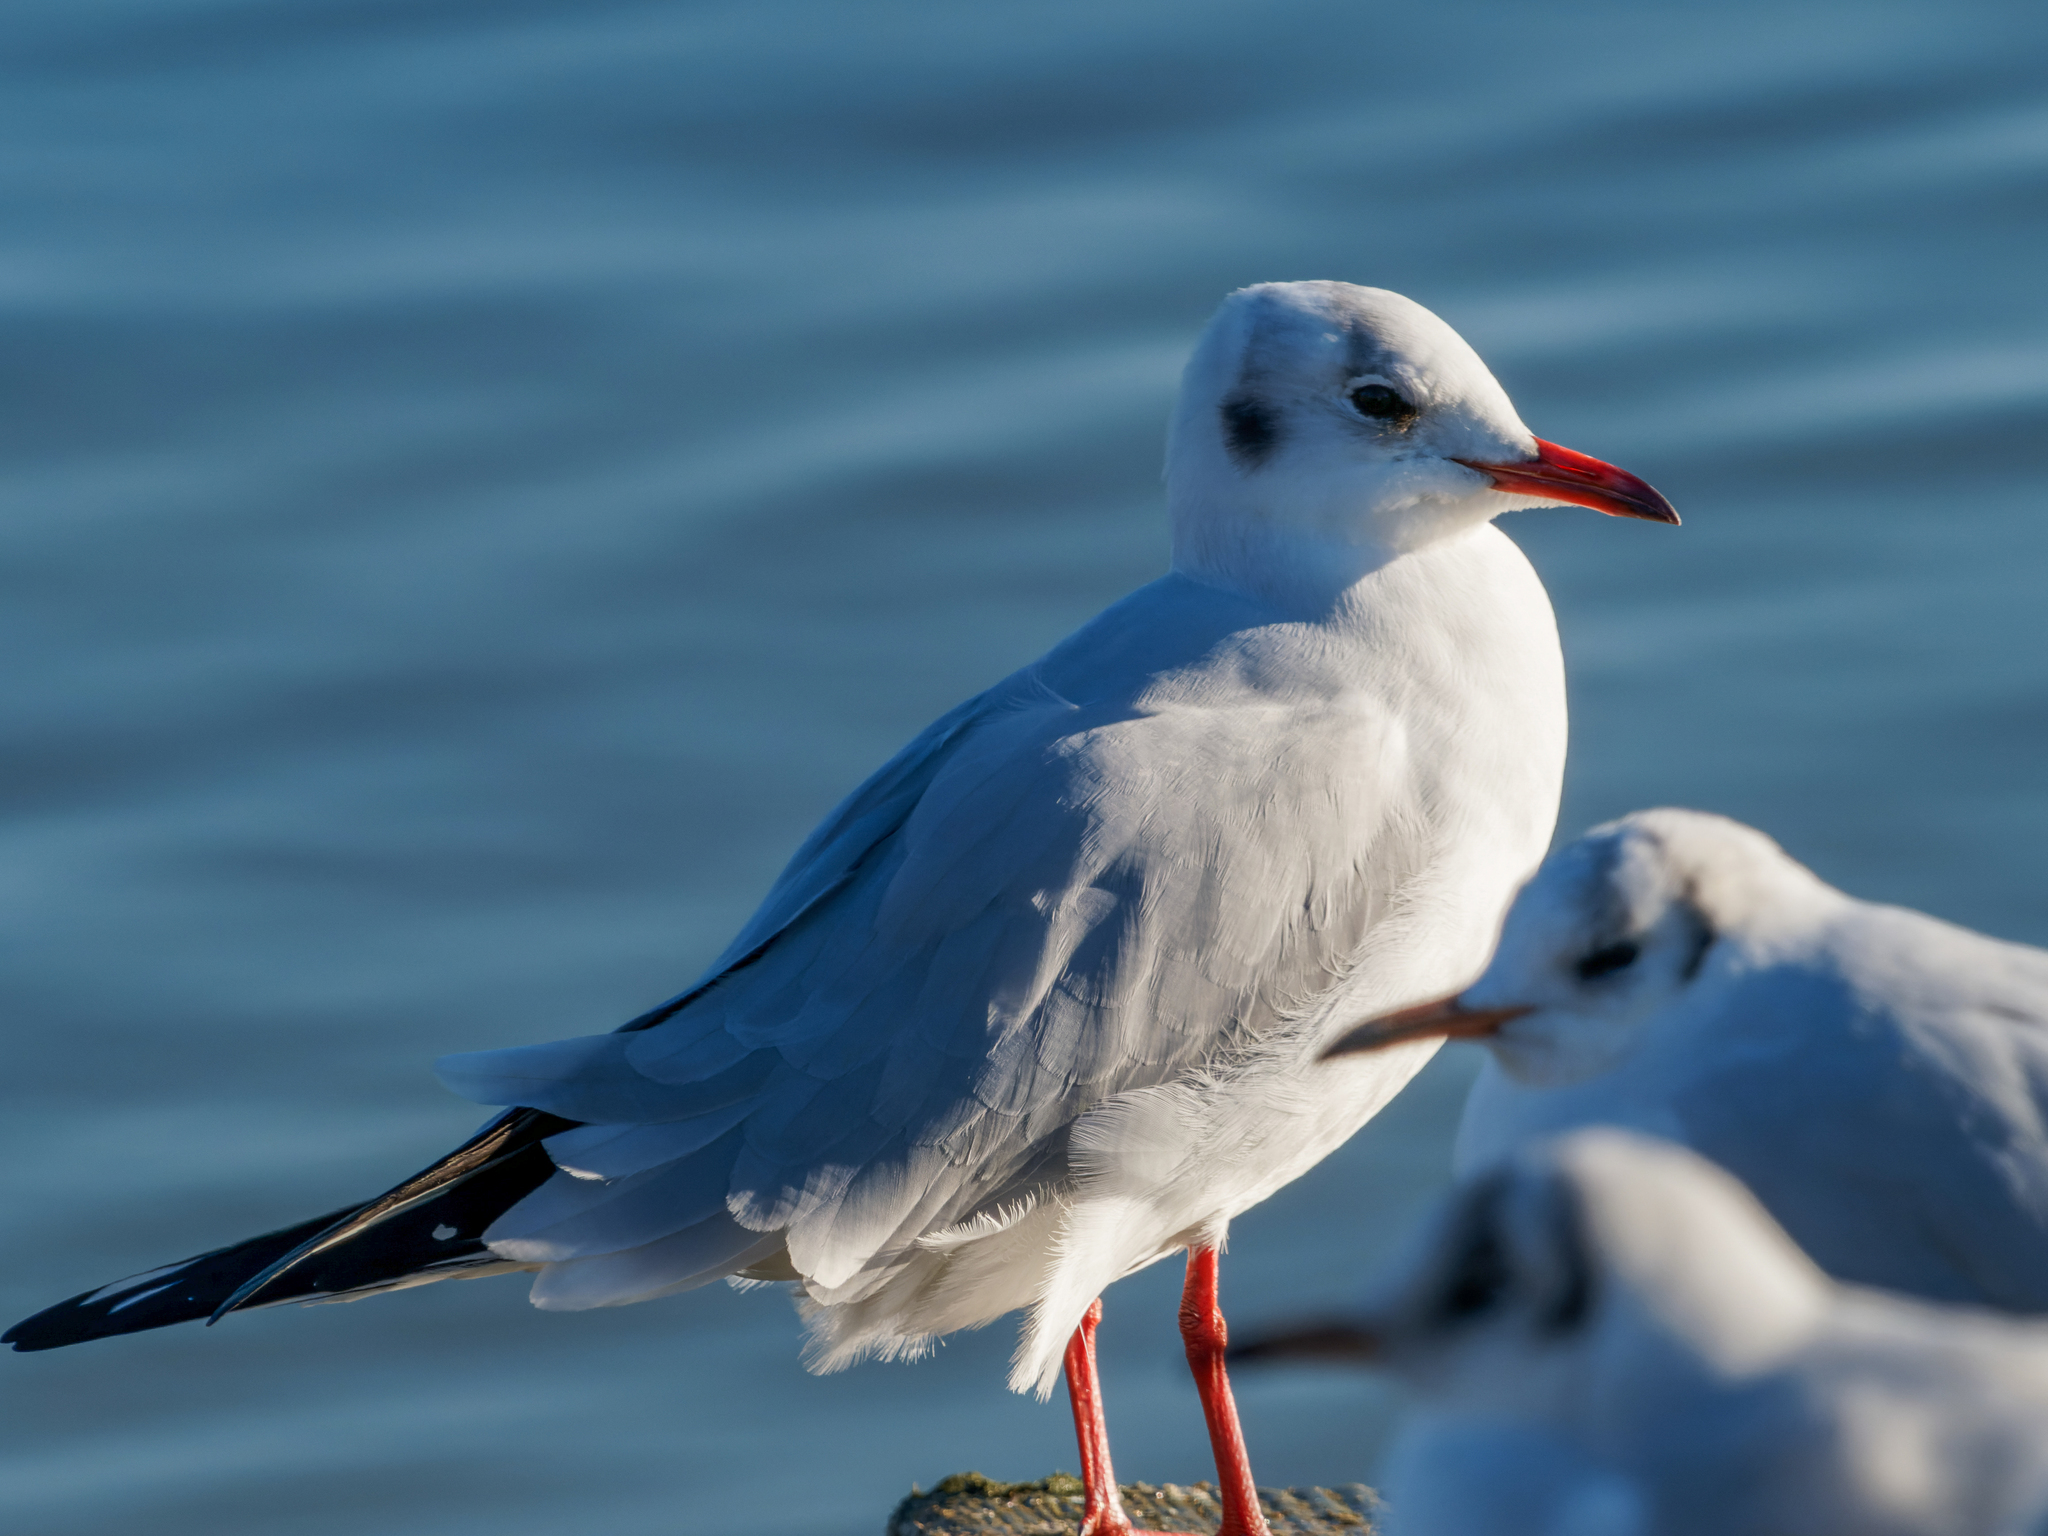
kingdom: Animalia
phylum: Chordata
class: Aves
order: Charadriiformes
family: Laridae
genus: Chroicocephalus
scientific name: Chroicocephalus ridibundus
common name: Black-headed gull
